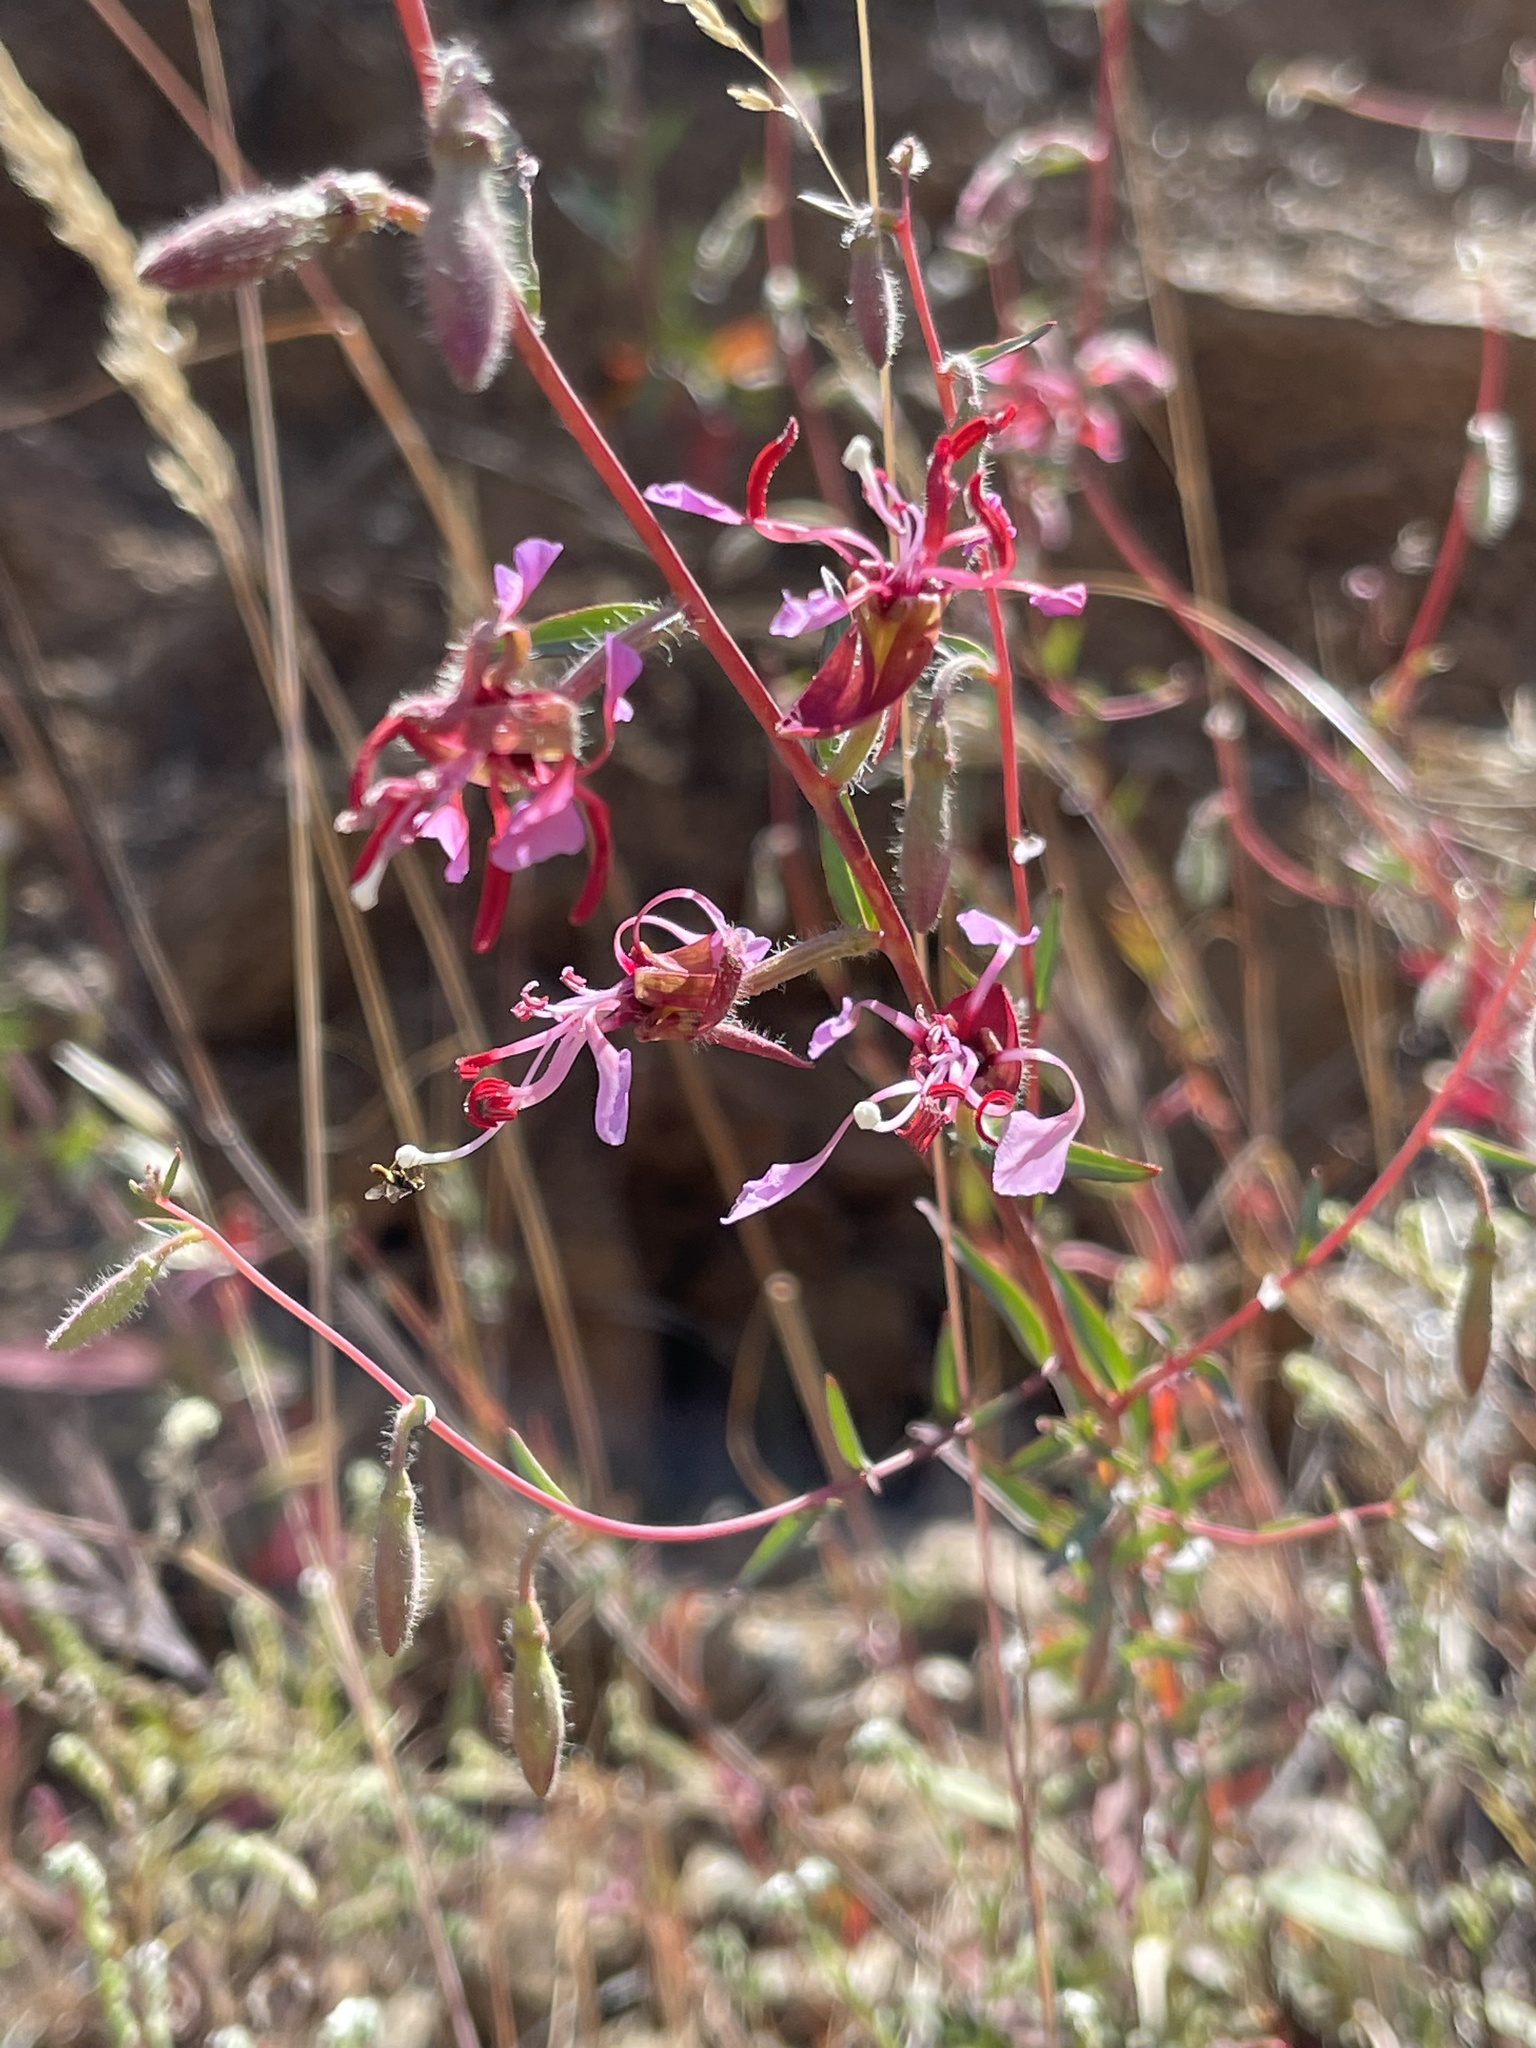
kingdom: Plantae
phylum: Tracheophyta
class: Magnoliopsida
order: Myrtales
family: Onagraceae
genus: Clarkia
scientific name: Clarkia unguiculata
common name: Clarkia
